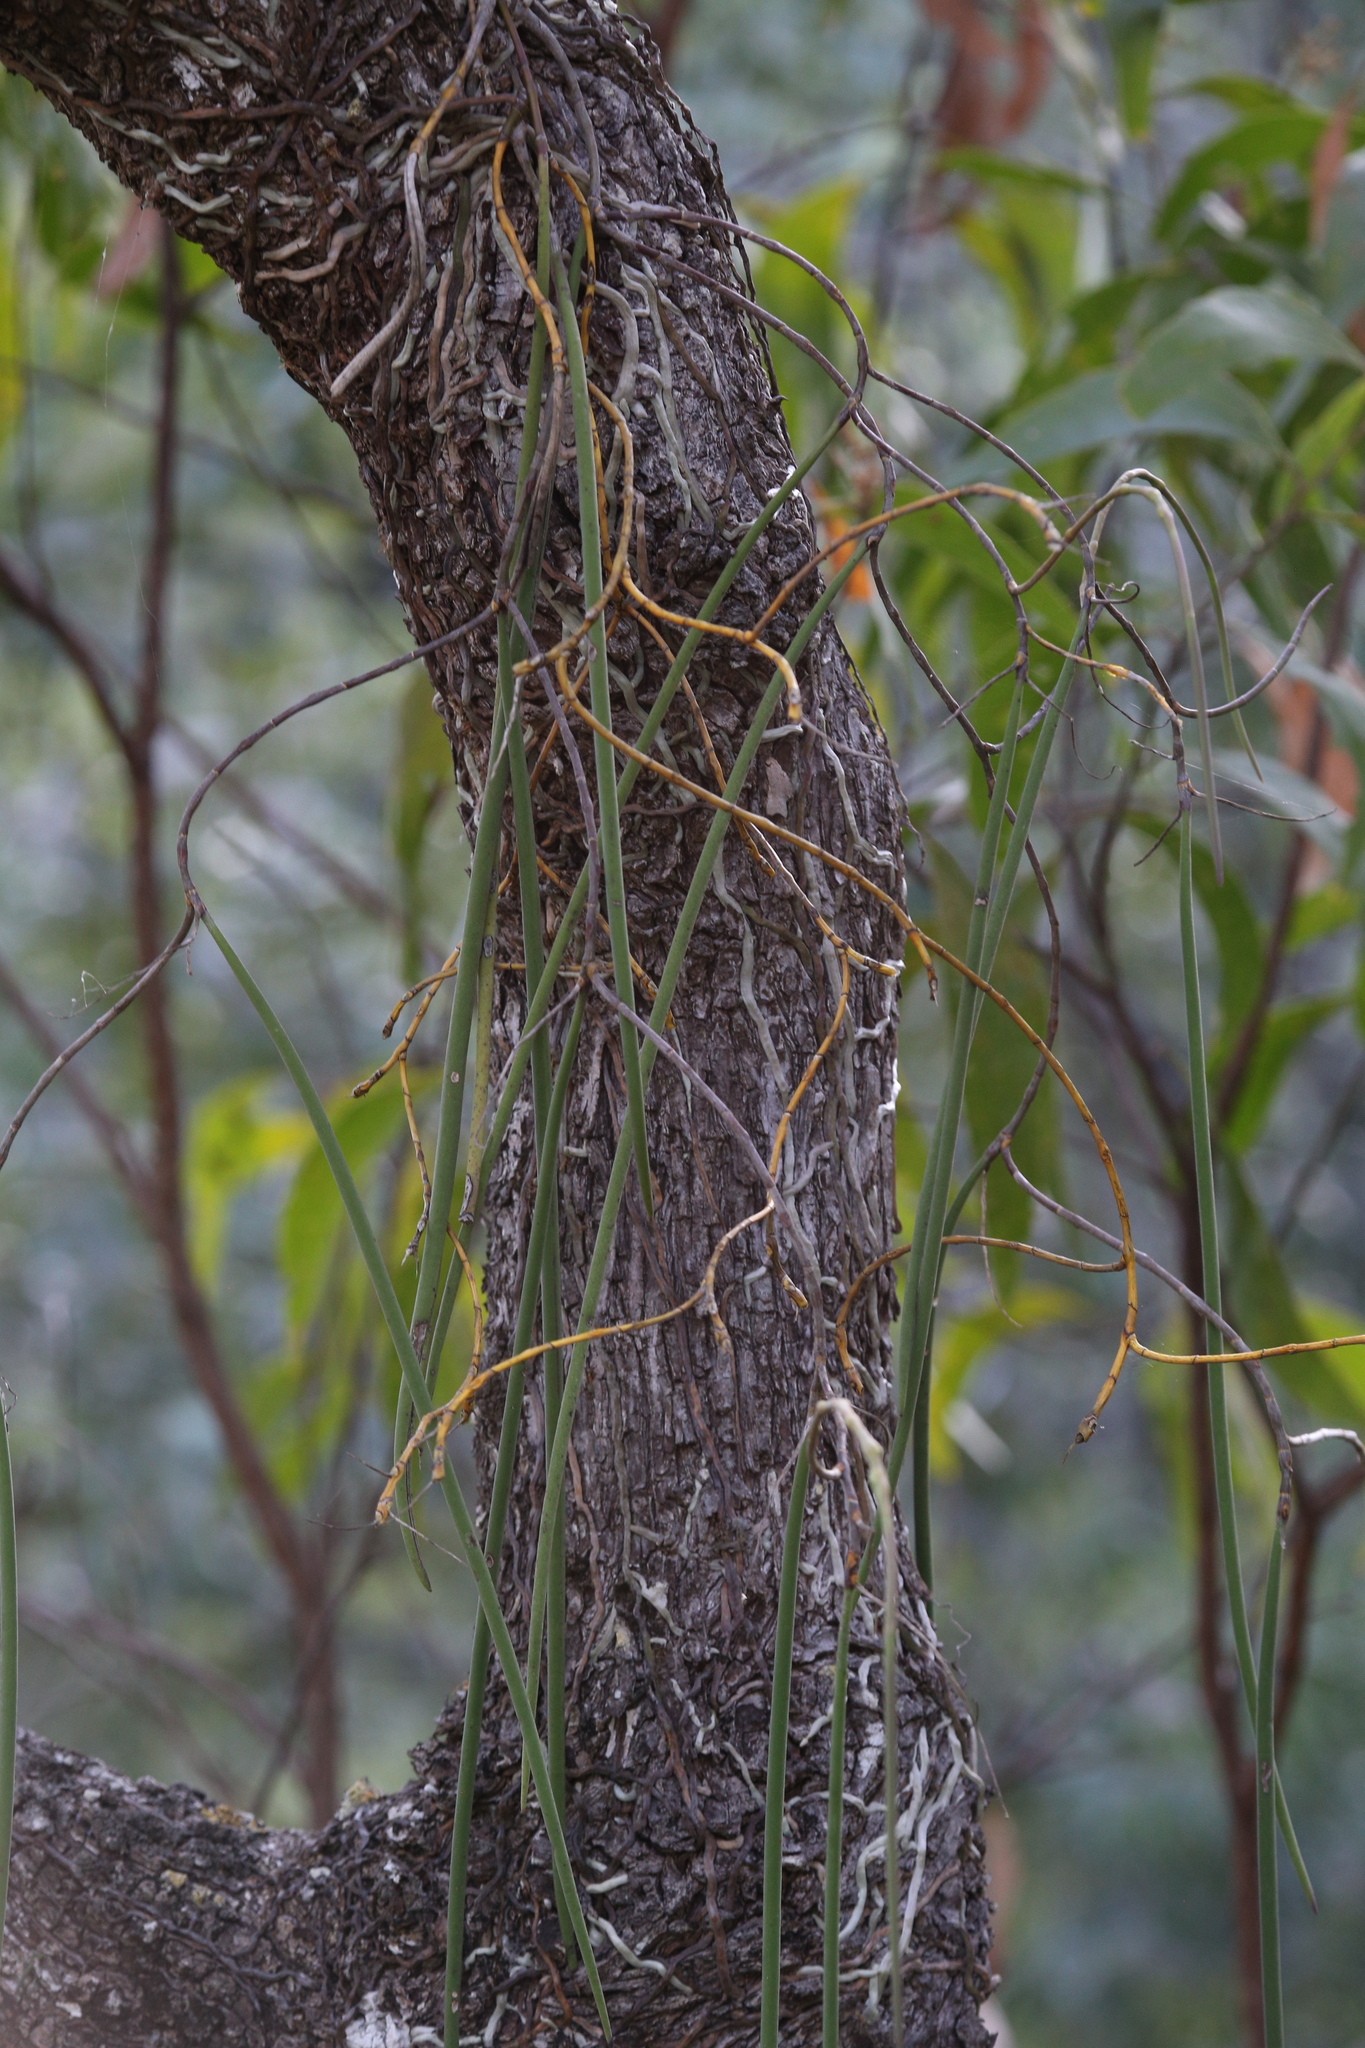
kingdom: Plantae
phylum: Tracheophyta
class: Liliopsida
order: Asparagales
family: Orchidaceae
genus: Dendrobium
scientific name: Dendrobium teretifolium
